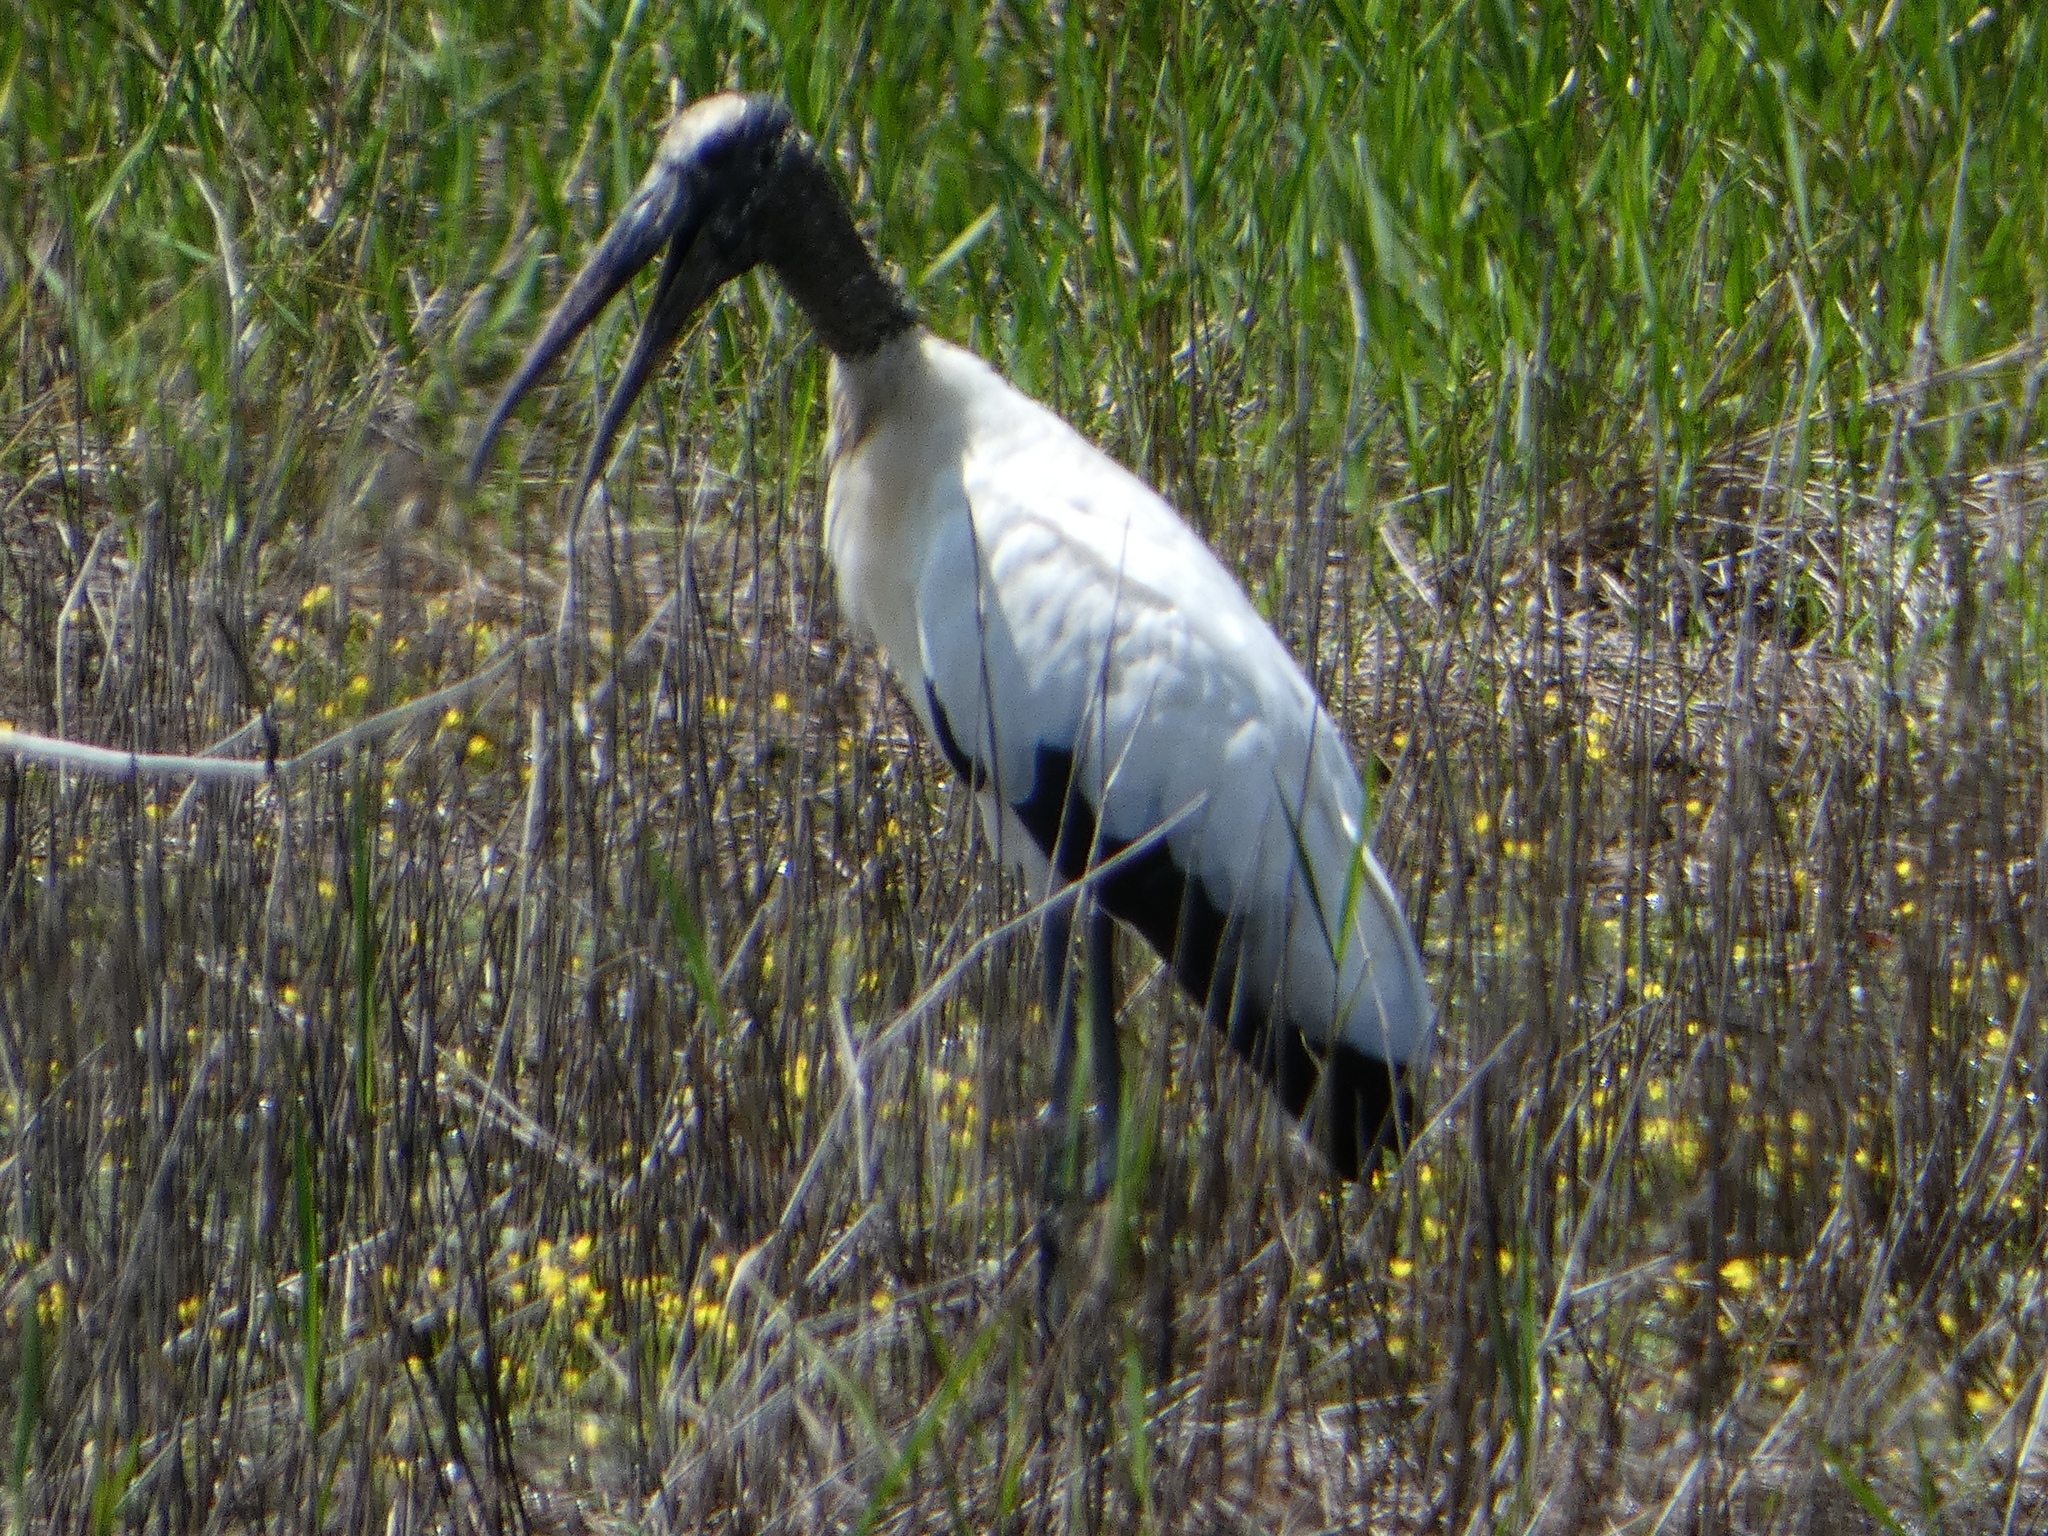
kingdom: Animalia
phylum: Chordata
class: Aves
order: Ciconiiformes
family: Ciconiidae
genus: Mycteria
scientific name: Mycteria americana
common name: Wood stork
